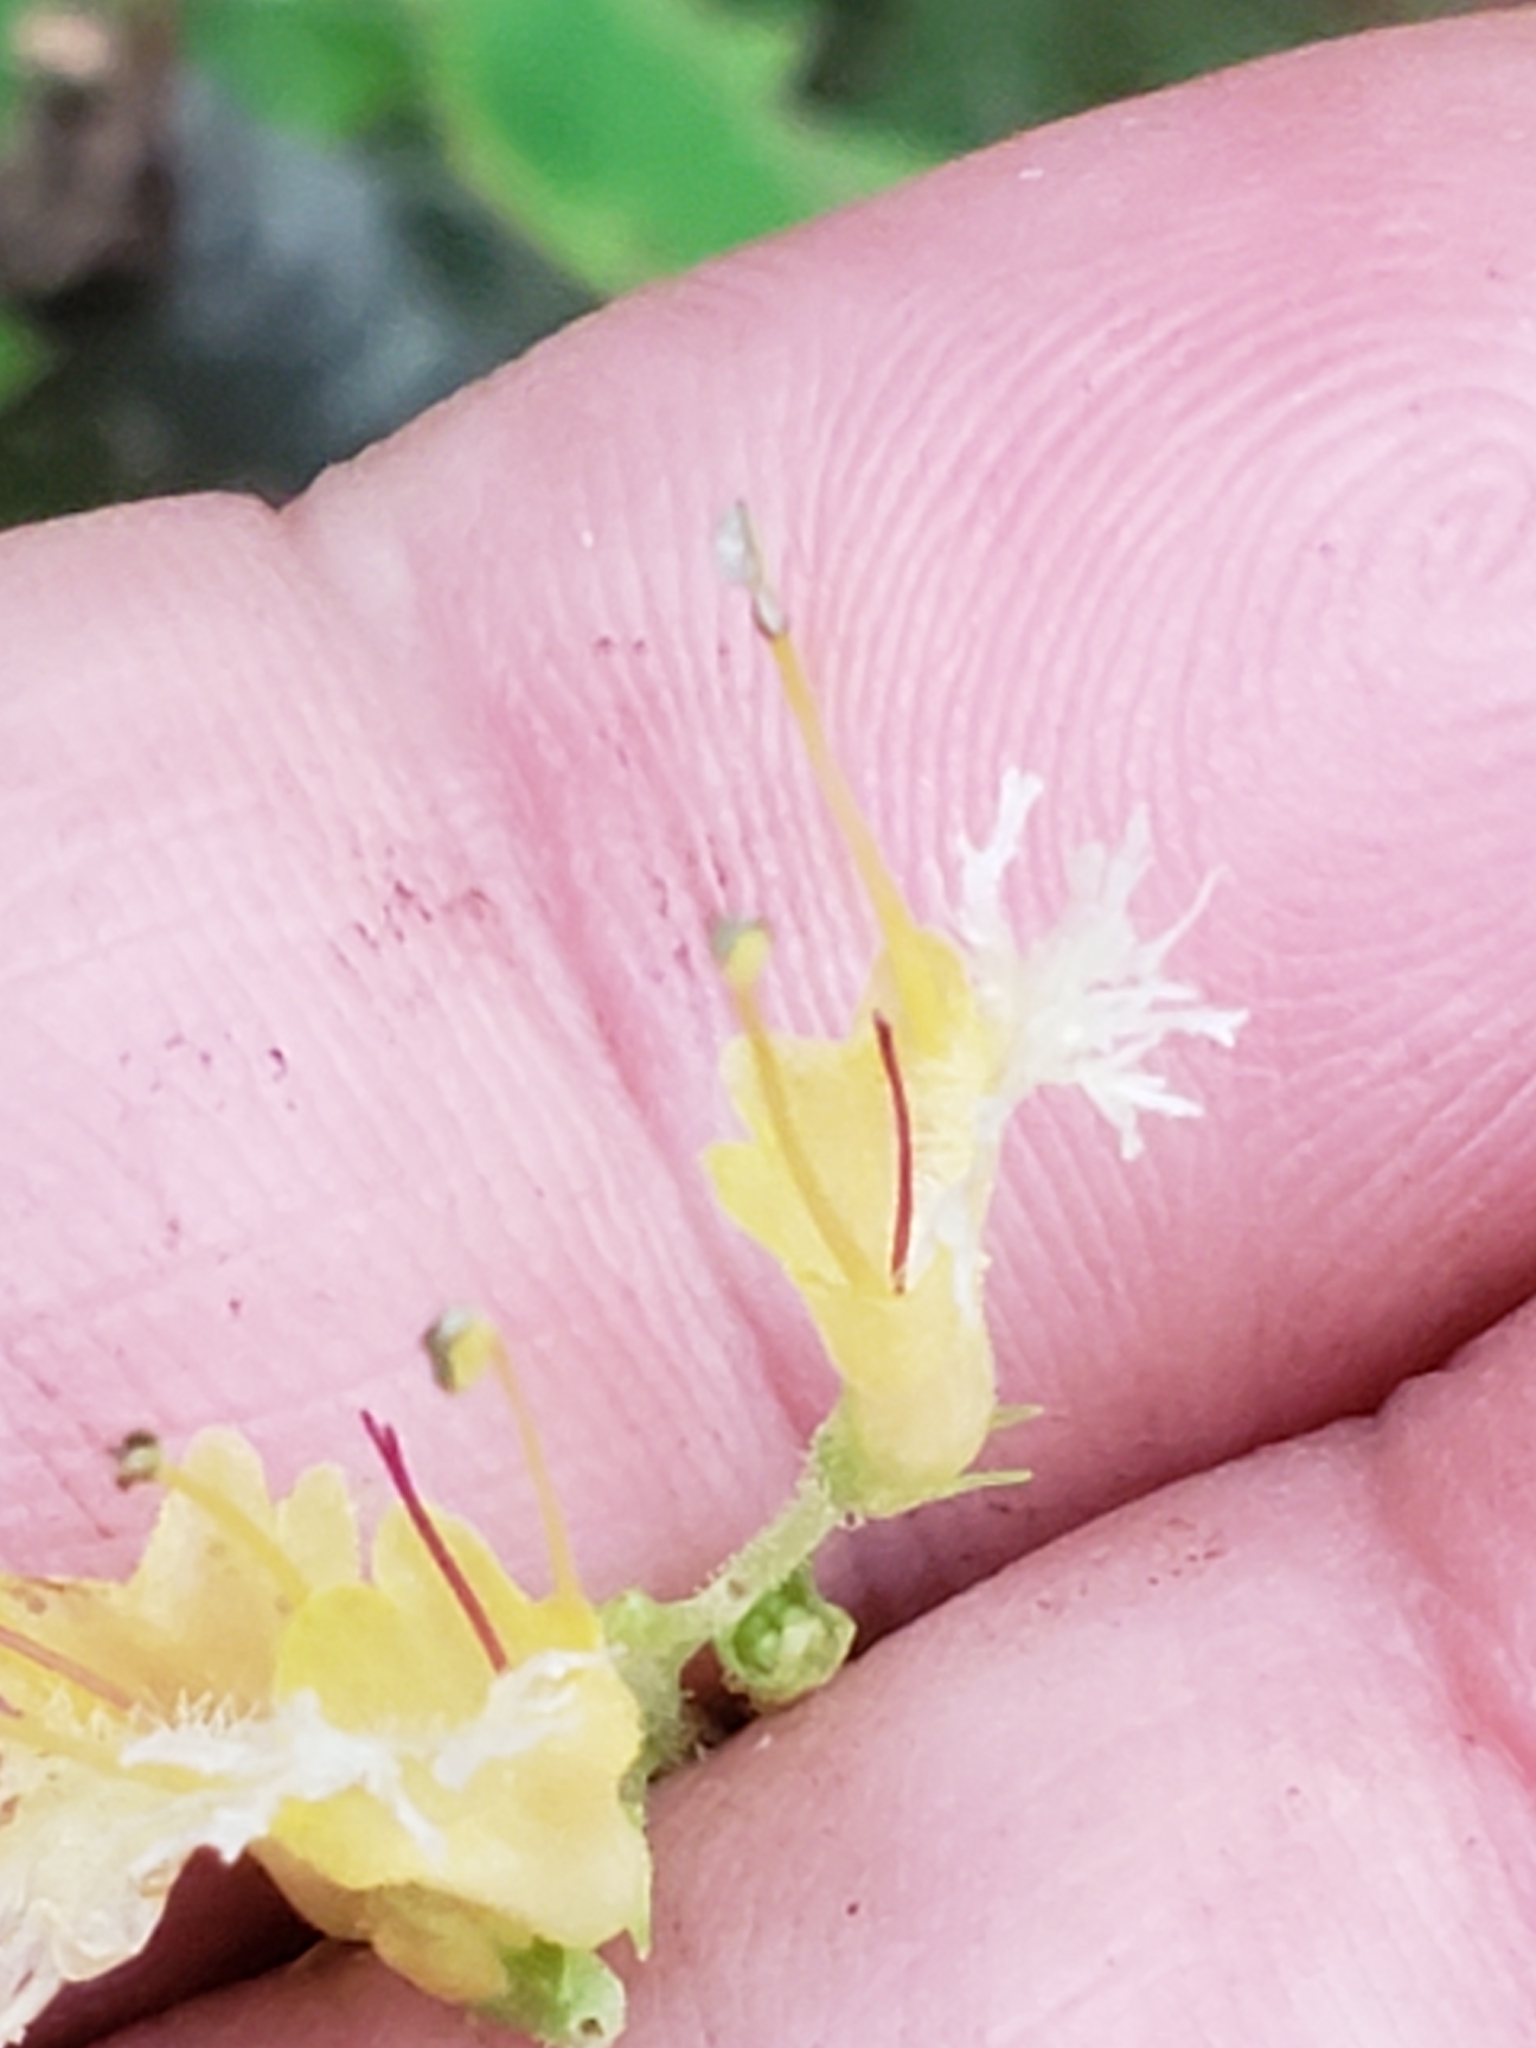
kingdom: Plantae
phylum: Tracheophyta
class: Magnoliopsida
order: Lamiales
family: Lamiaceae
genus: Collinsonia
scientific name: Collinsonia canadensis
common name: Northern horsebalm
